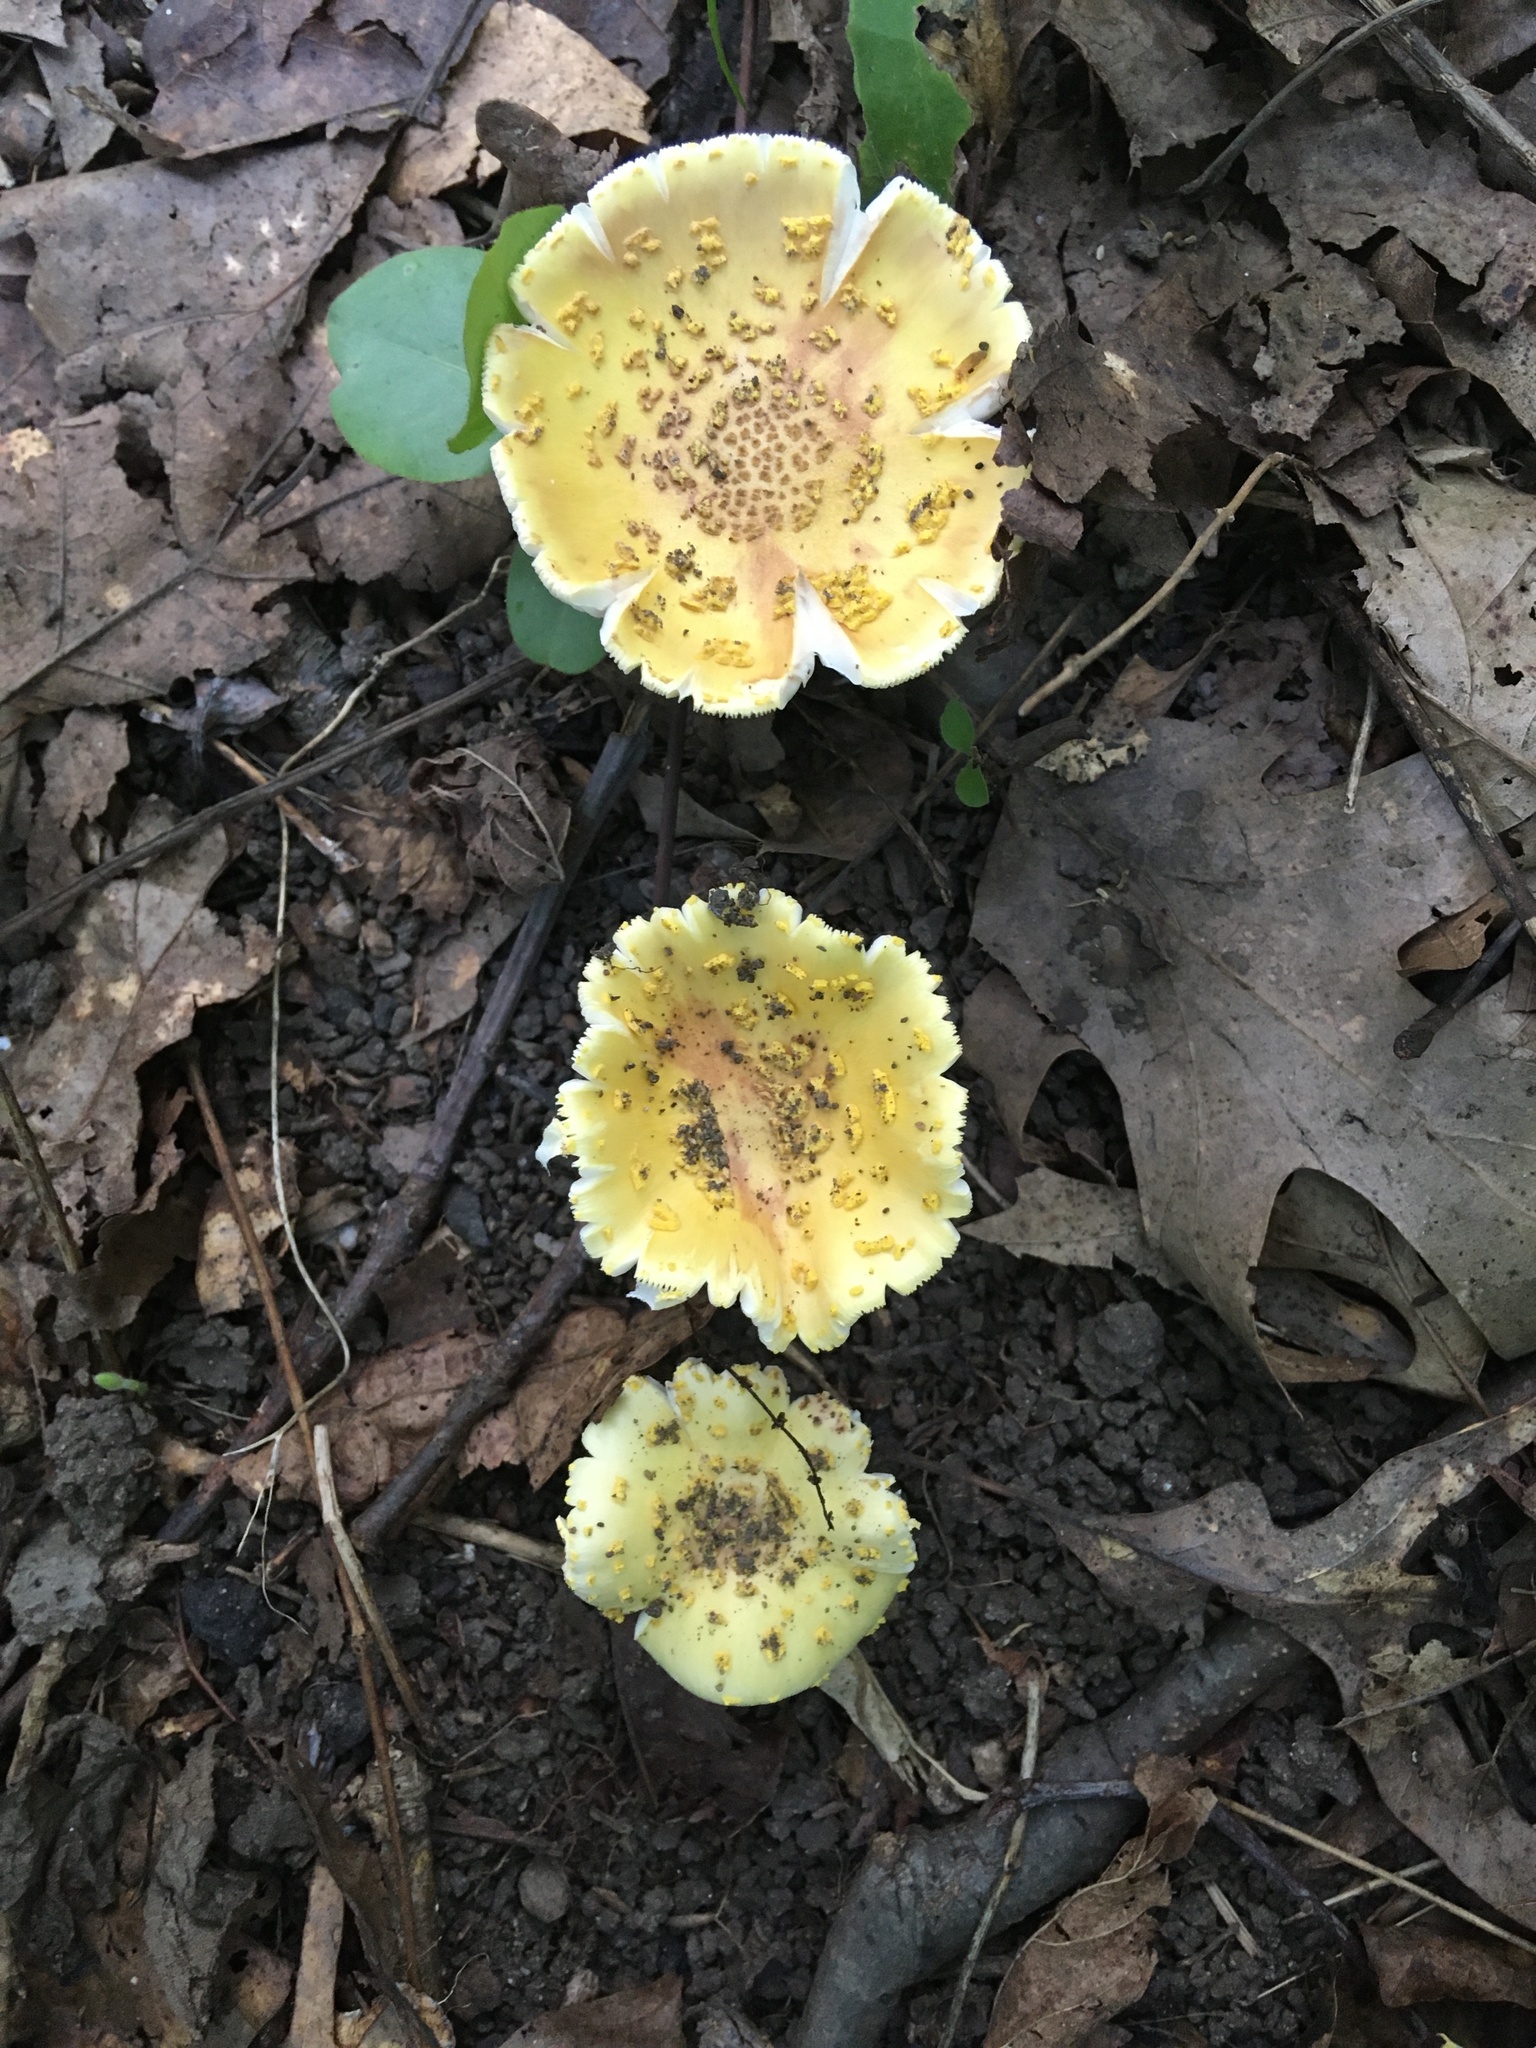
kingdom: Fungi
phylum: Basidiomycota
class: Agaricomycetes
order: Agaricales
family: Amanitaceae
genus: Amanita
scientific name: Amanita flavorubens
